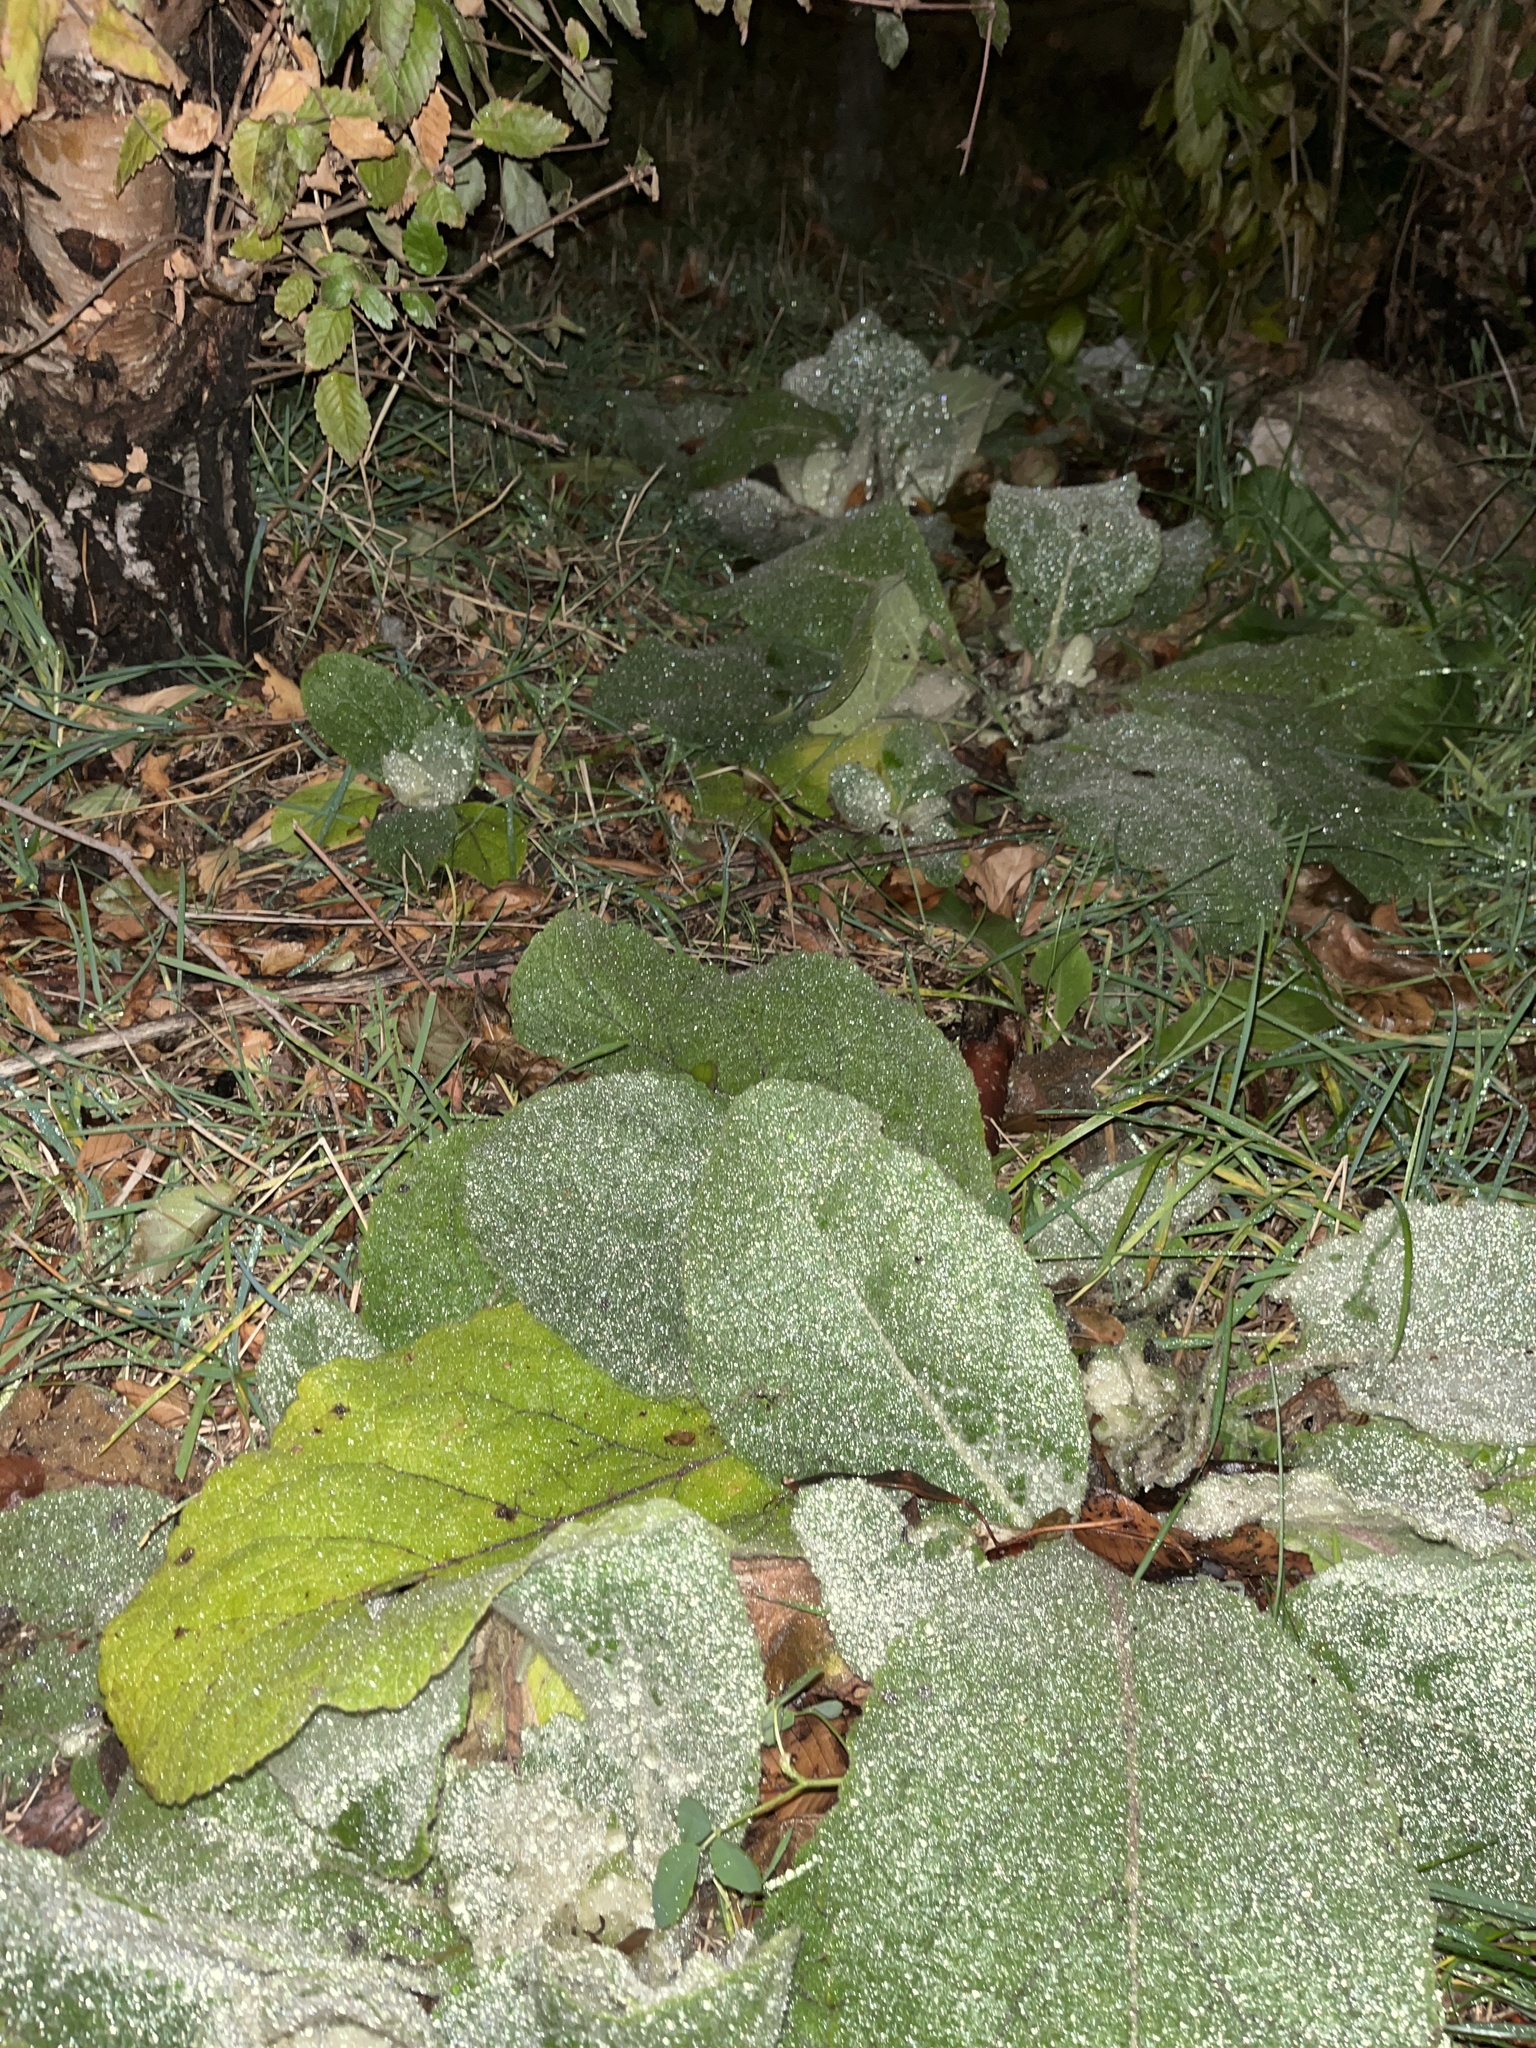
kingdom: Plantae
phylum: Tracheophyta
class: Magnoliopsida
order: Lamiales
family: Scrophulariaceae
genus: Verbascum
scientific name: Verbascum thapsus
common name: Common mullein
